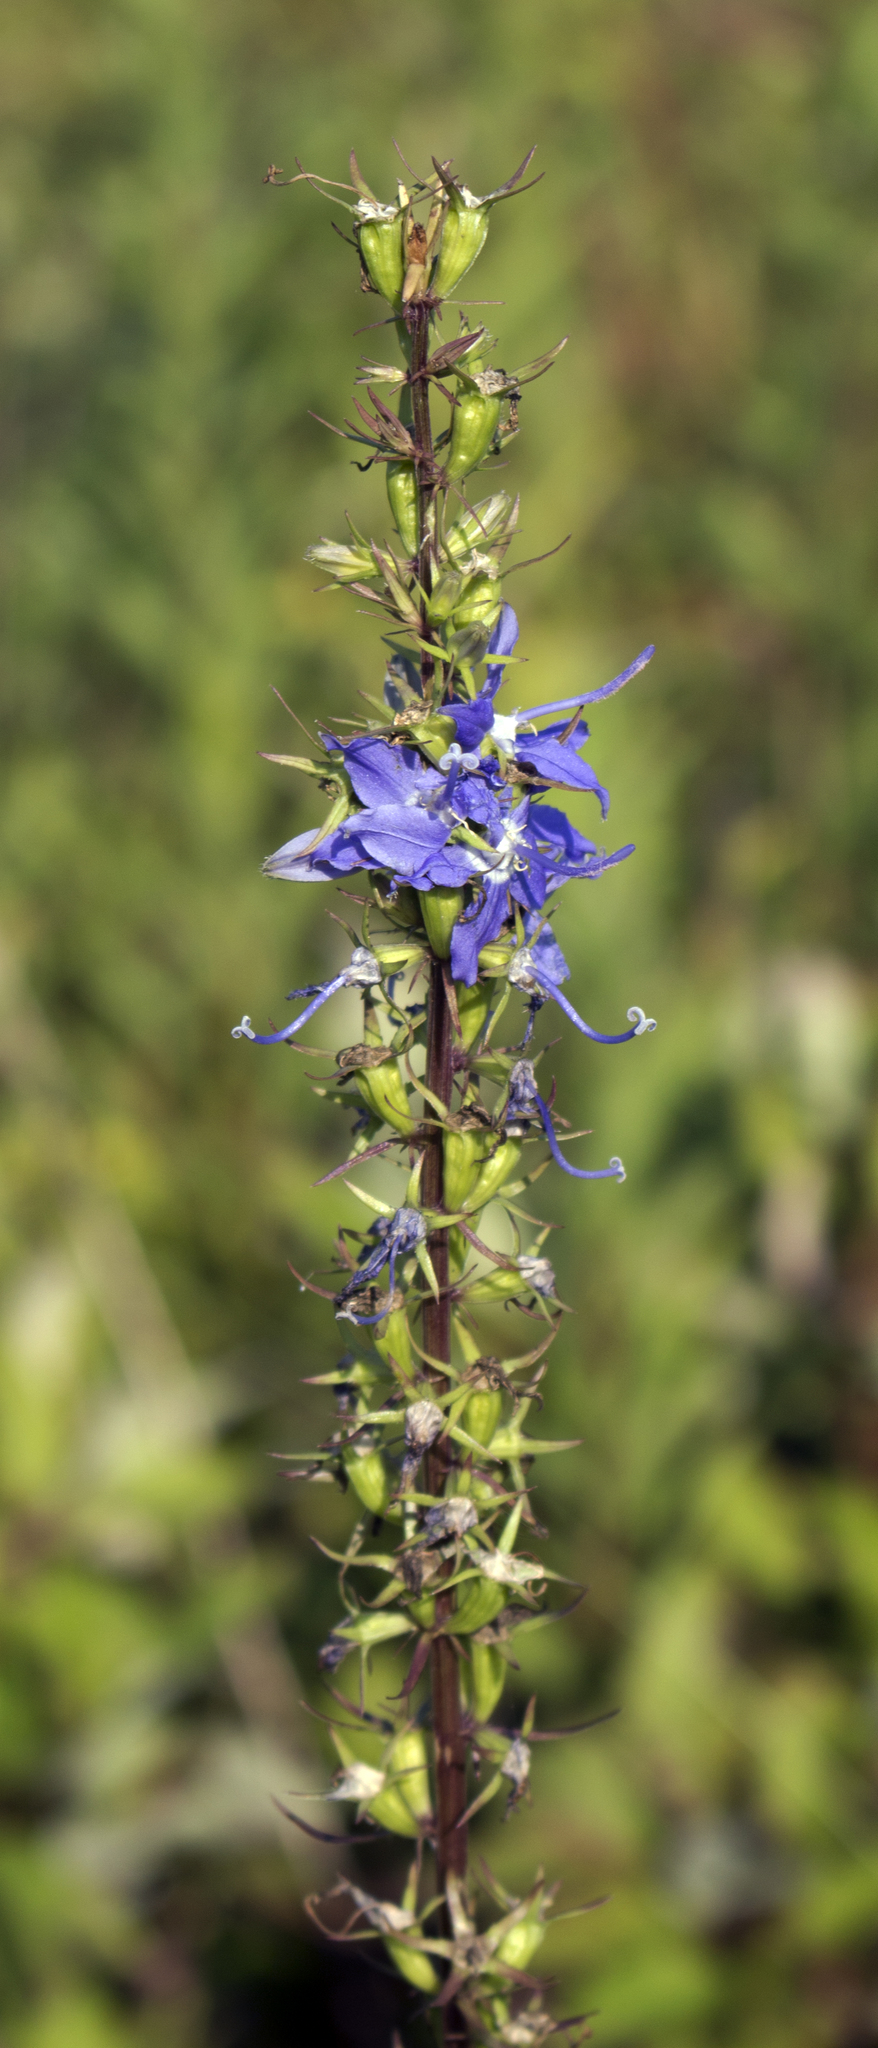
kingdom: Plantae
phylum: Tracheophyta
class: Magnoliopsida
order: Asterales
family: Campanulaceae
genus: Campanulastrum
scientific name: Campanulastrum americanum
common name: American bellflower
